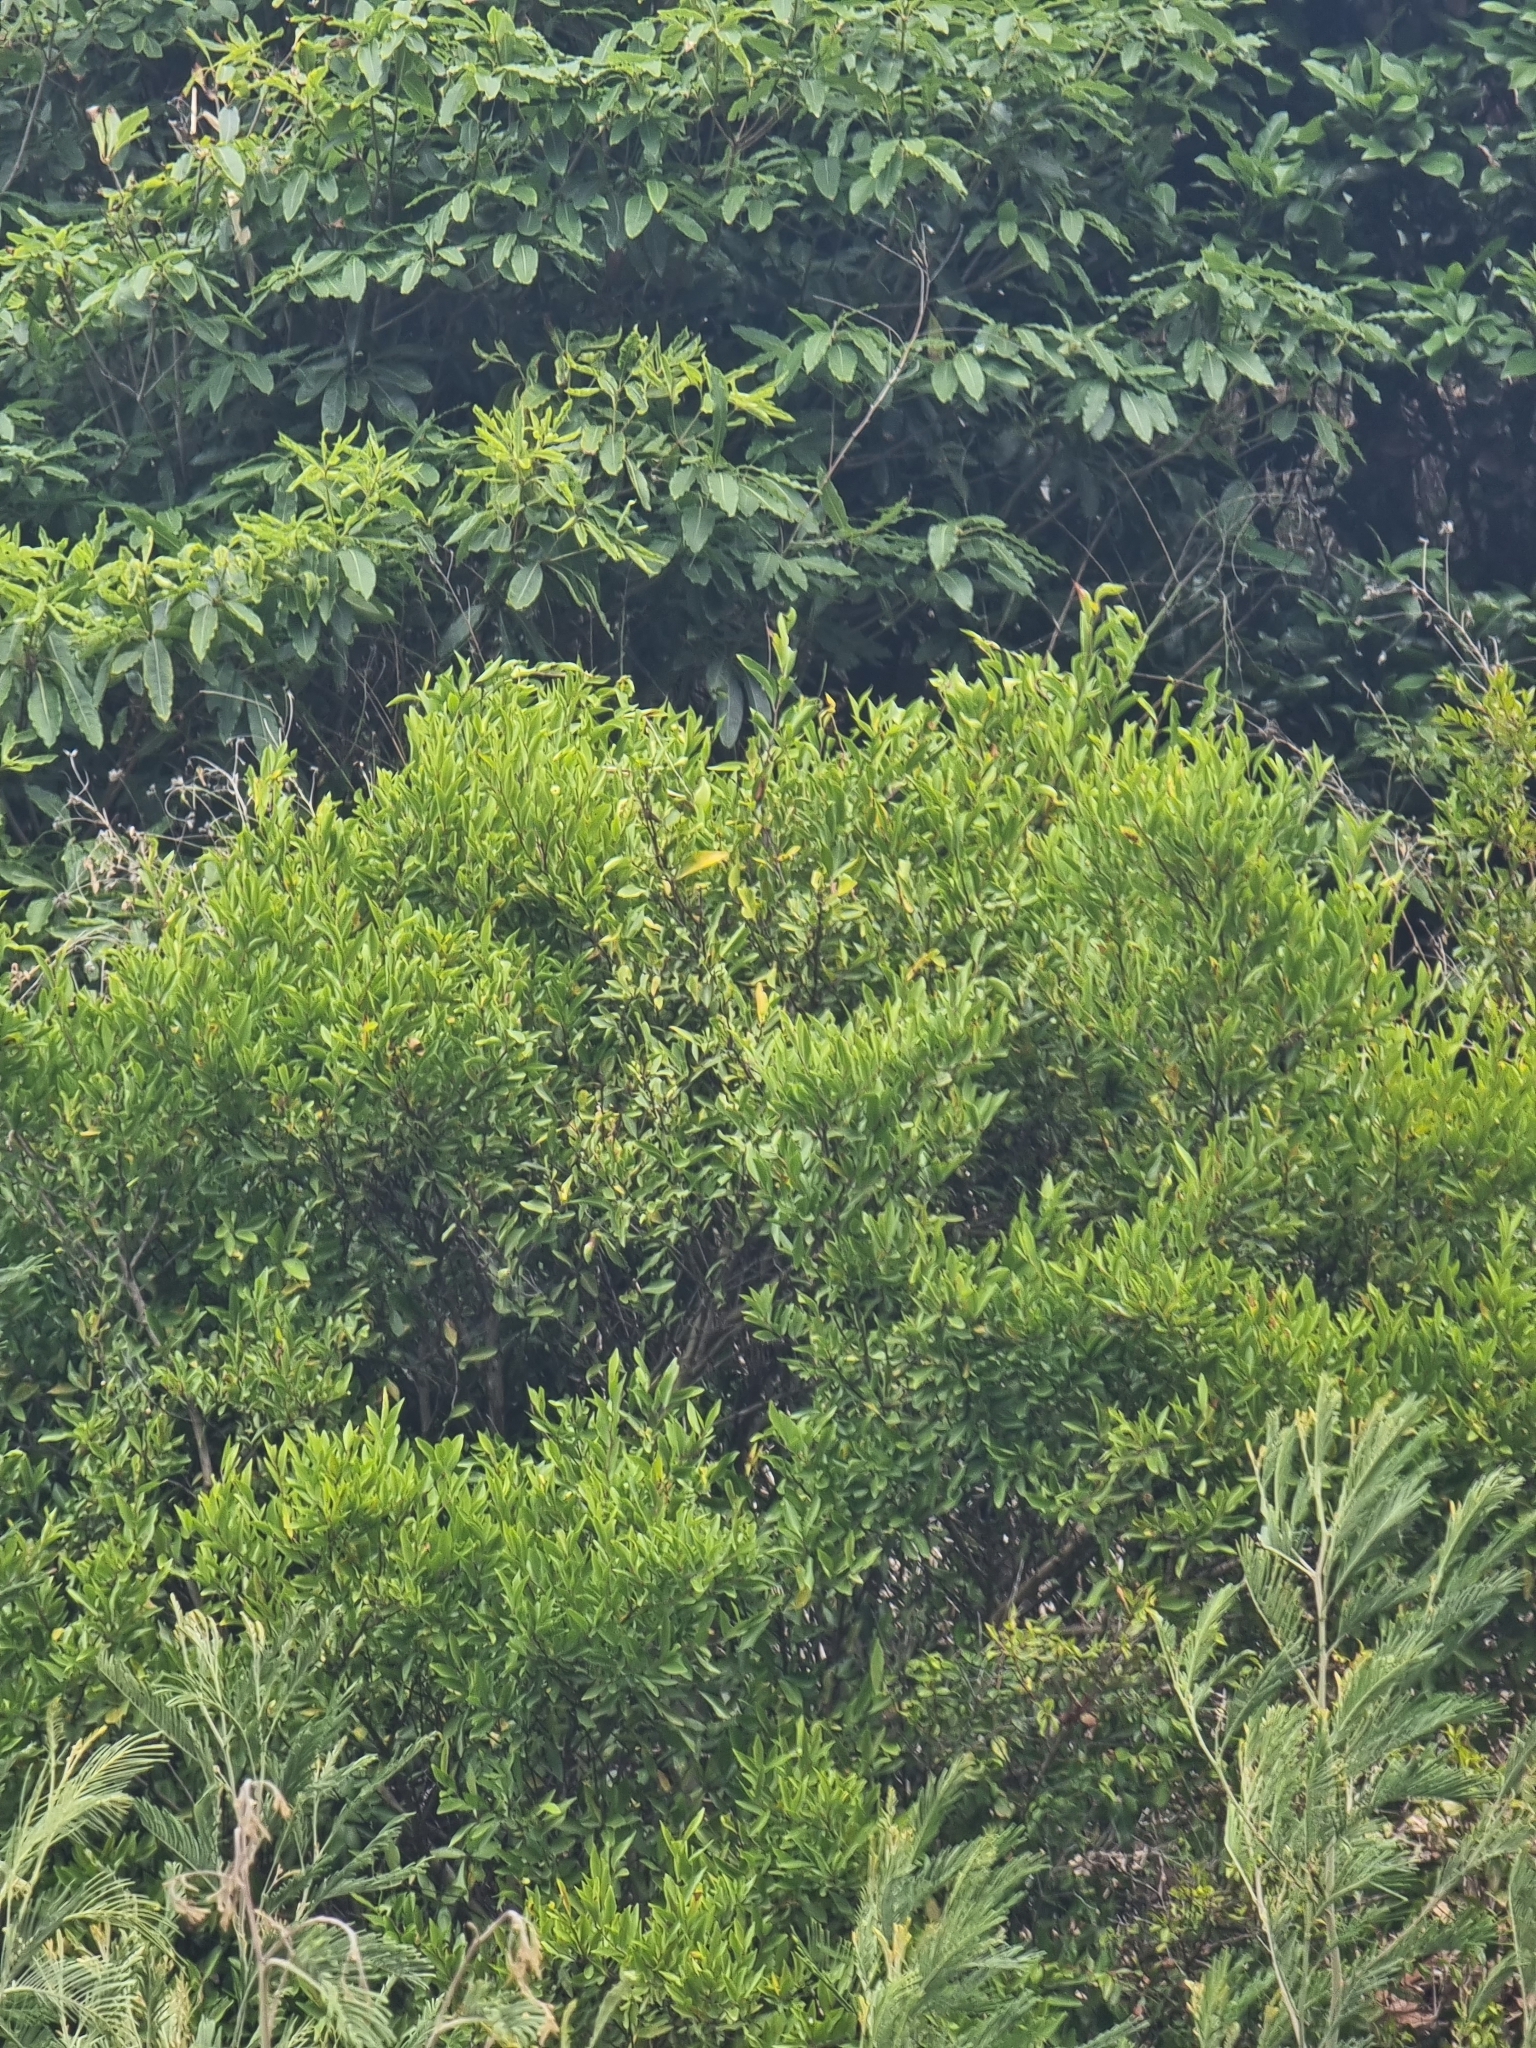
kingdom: Plantae
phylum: Tracheophyta
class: Magnoliopsida
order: Celastrales
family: Celastraceae
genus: Gymnosporia
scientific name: Gymnosporia dryandri
